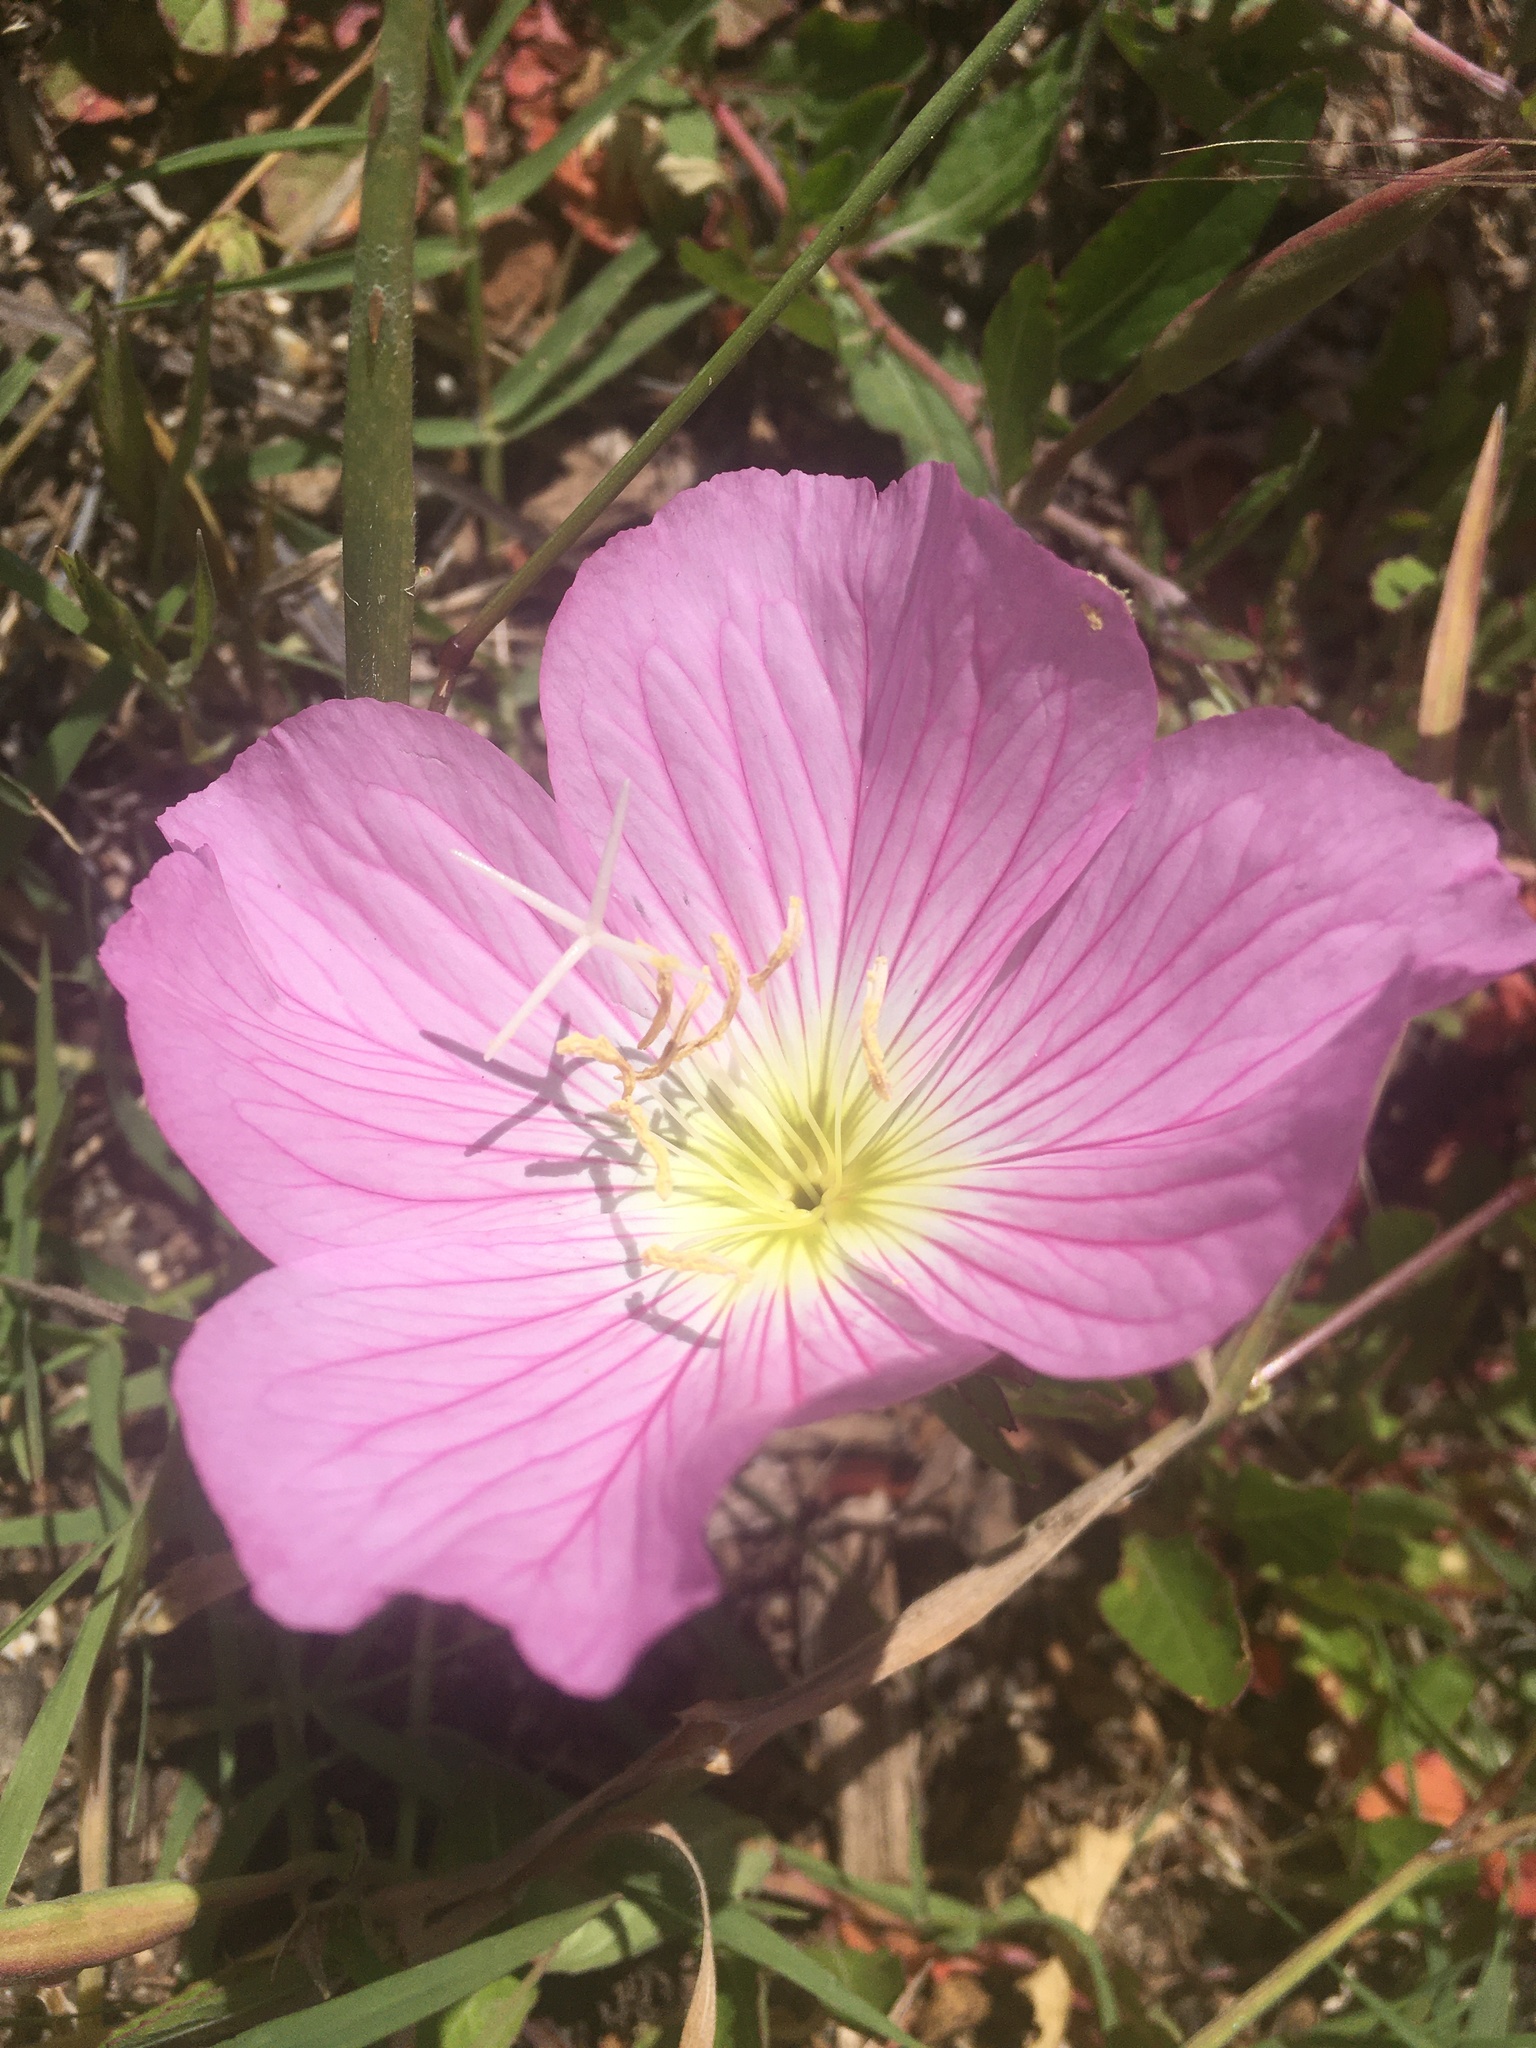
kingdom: Plantae
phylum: Tracheophyta
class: Magnoliopsida
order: Myrtales
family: Onagraceae
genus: Oenothera
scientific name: Oenothera speciosa
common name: White evening-primrose
